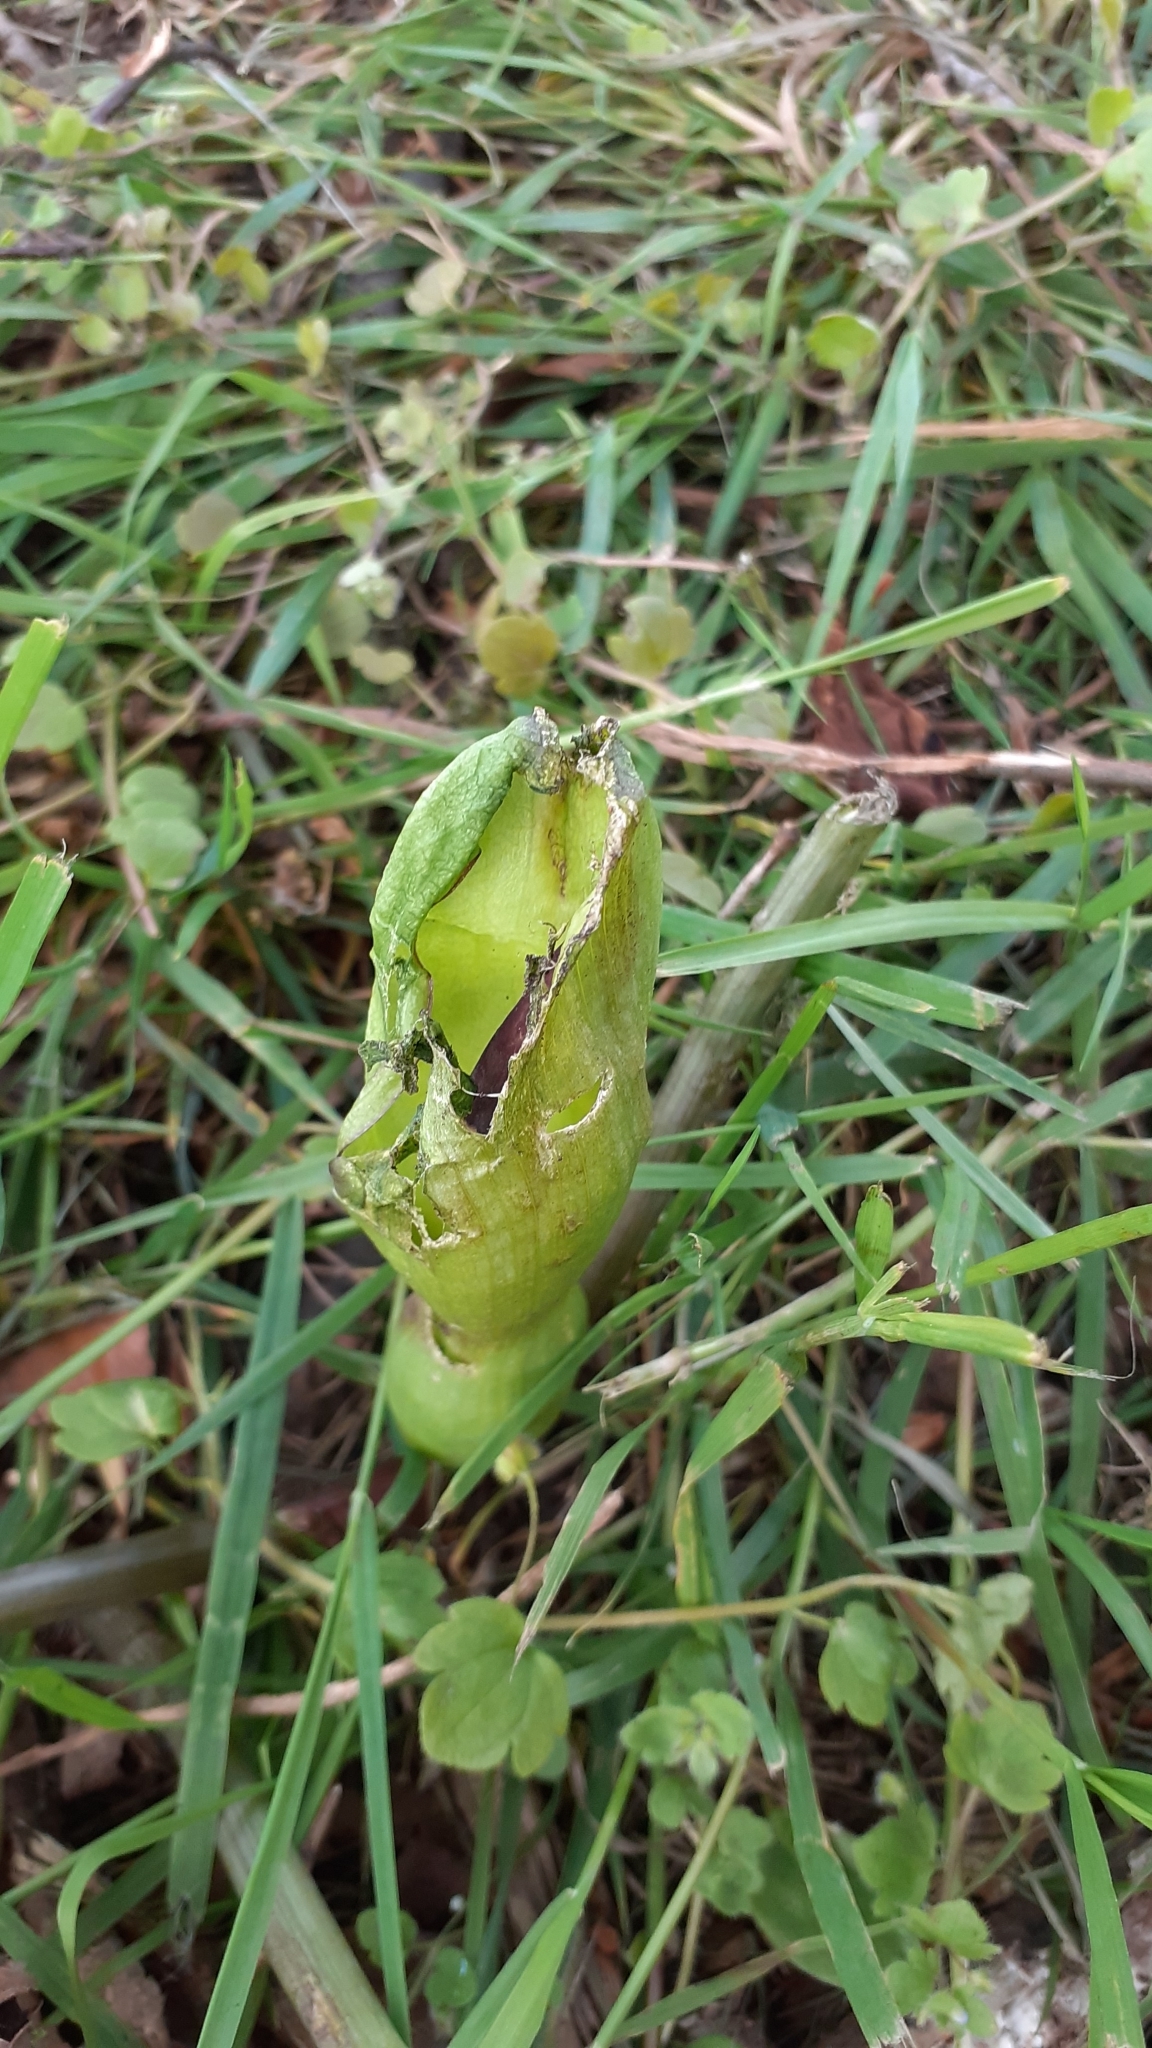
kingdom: Plantae
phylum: Tracheophyta
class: Liliopsida
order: Alismatales
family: Araceae
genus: Arum
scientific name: Arum maculatum
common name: Lords-and-ladies
